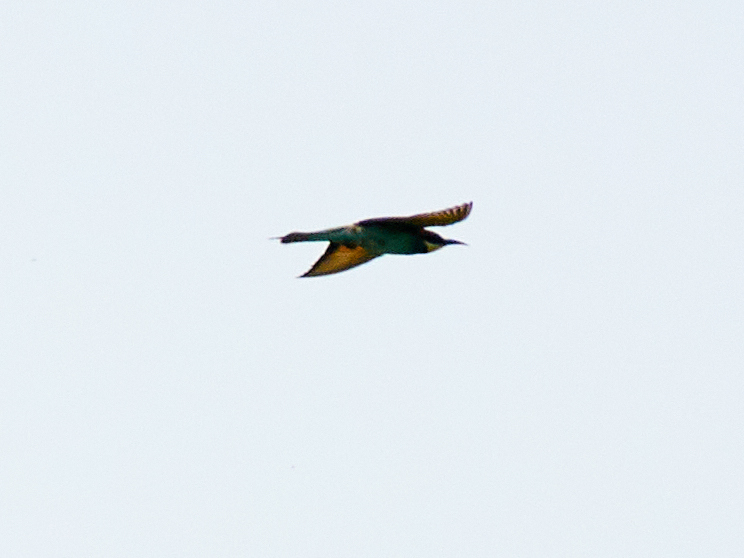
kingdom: Animalia
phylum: Chordata
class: Aves
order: Coraciiformes
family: Meropidae
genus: Merops
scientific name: Merops apiaster
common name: European bee-eater
